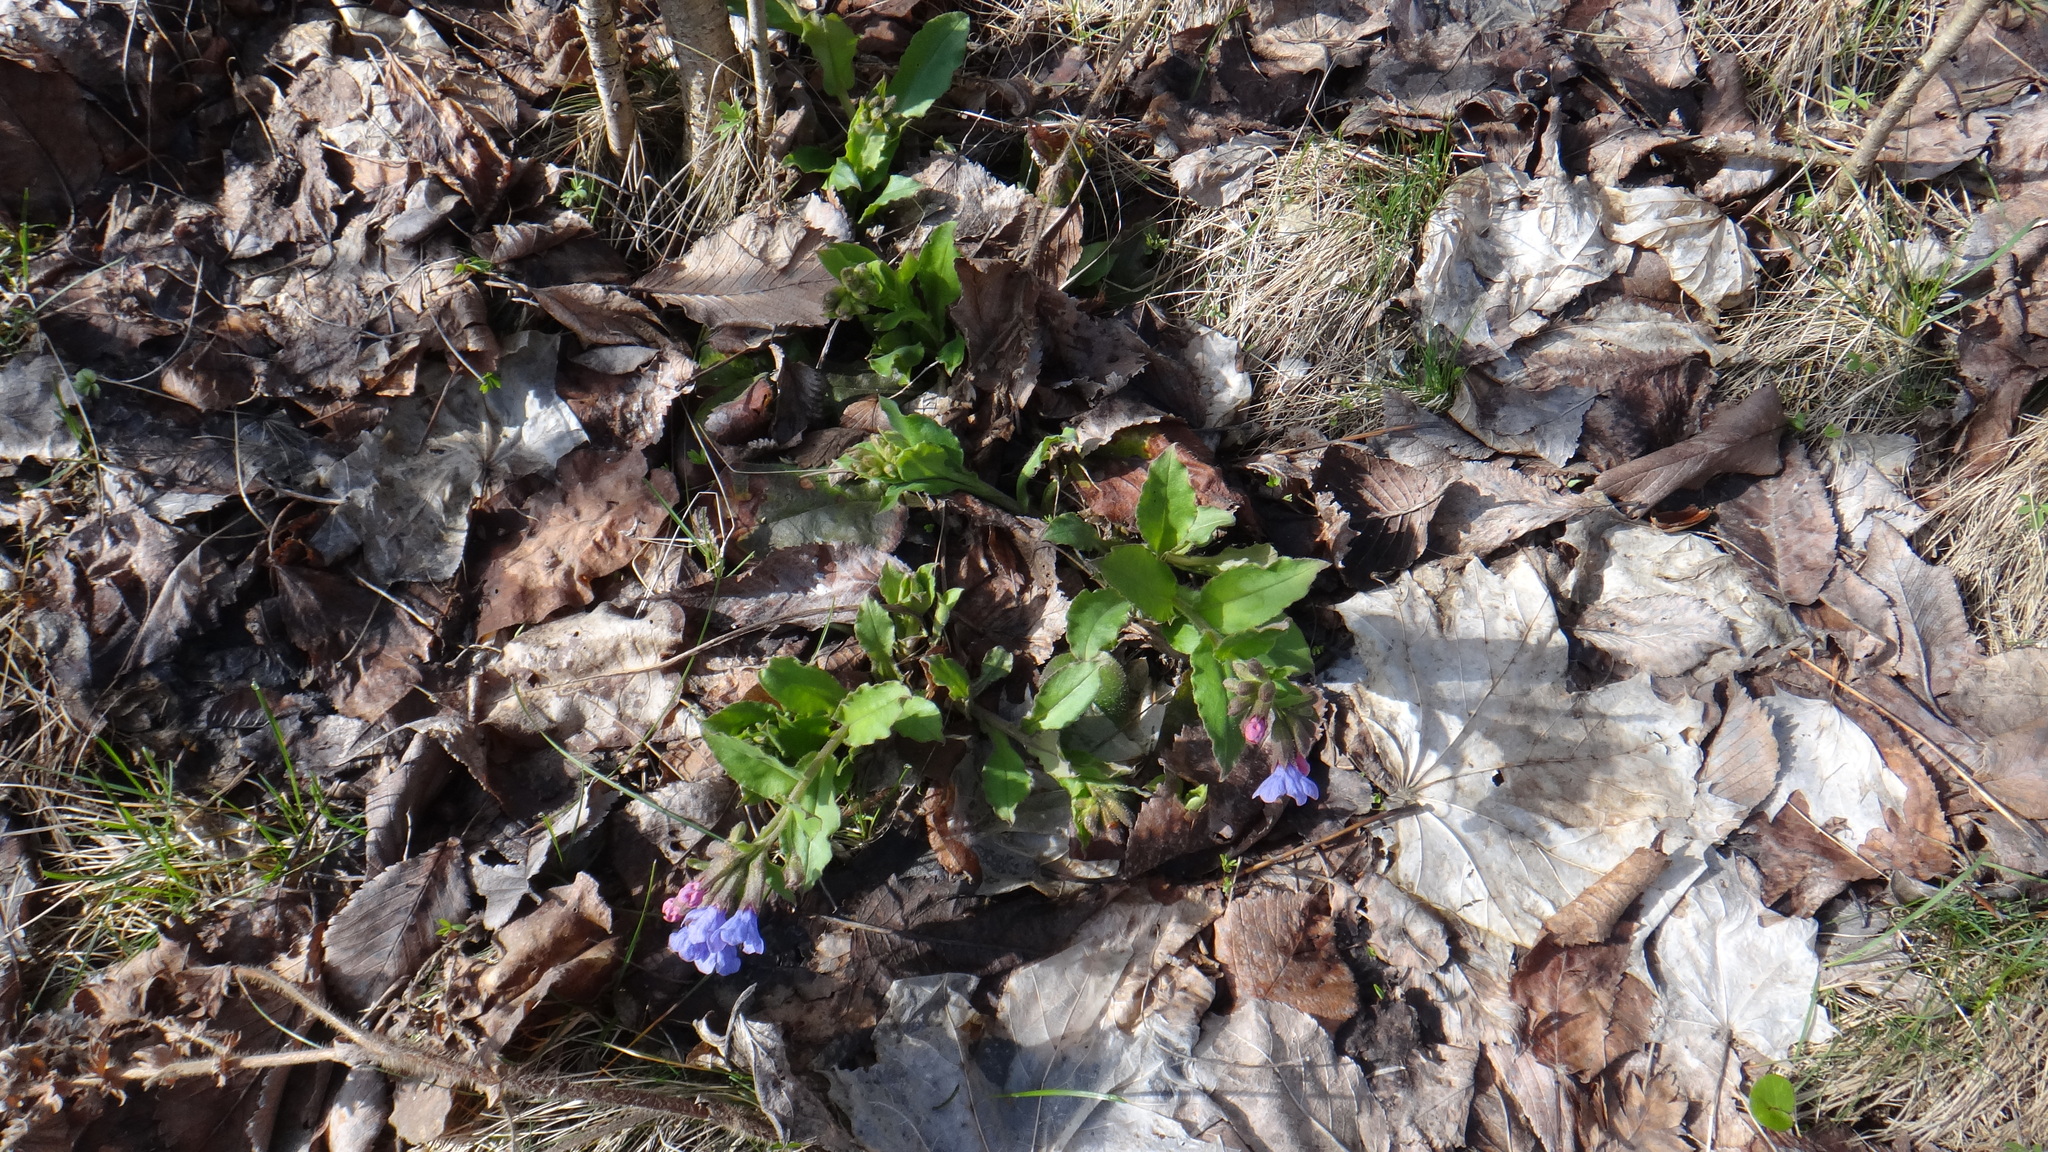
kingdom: Plantae
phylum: Tracheophyta
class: Magnoliopsida
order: Boraginales
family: Boraginaceae
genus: Pulmonaria
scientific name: Pulmonaria obscura
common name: Suffolk lungwort
